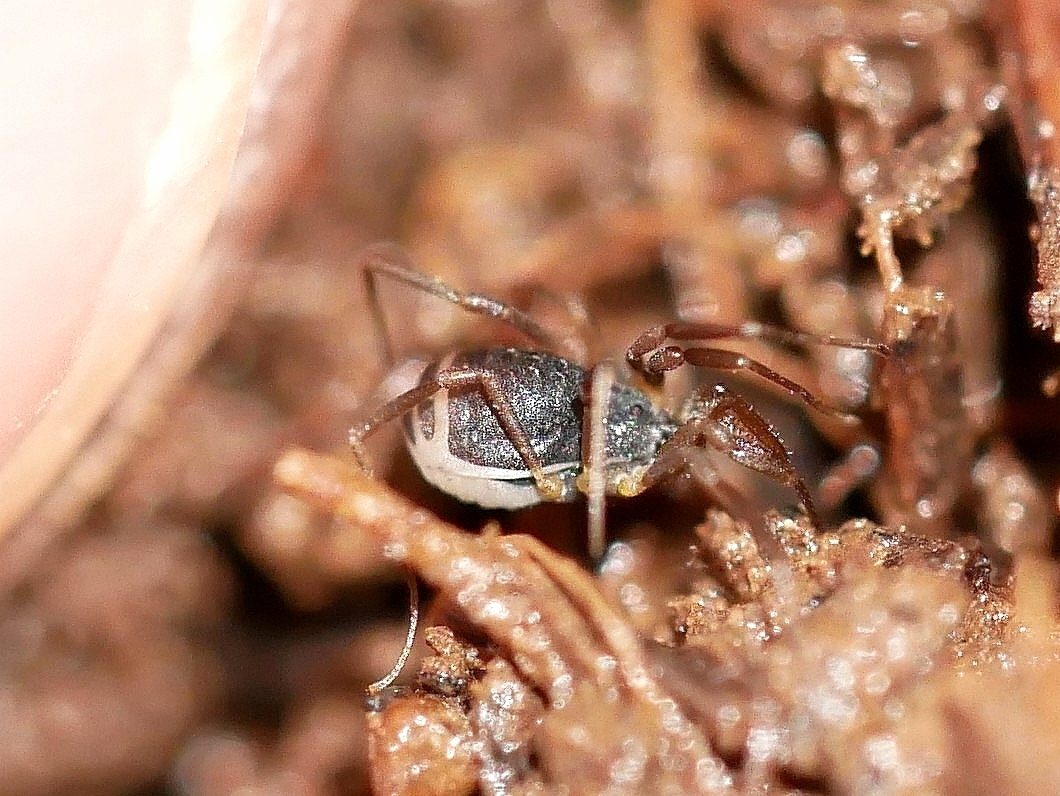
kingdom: Animalia
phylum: Arthropoda
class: Arachnida
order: Opiliones
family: Taracidae
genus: Hesperonemastoma
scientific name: Hesperonemastoma modestum
